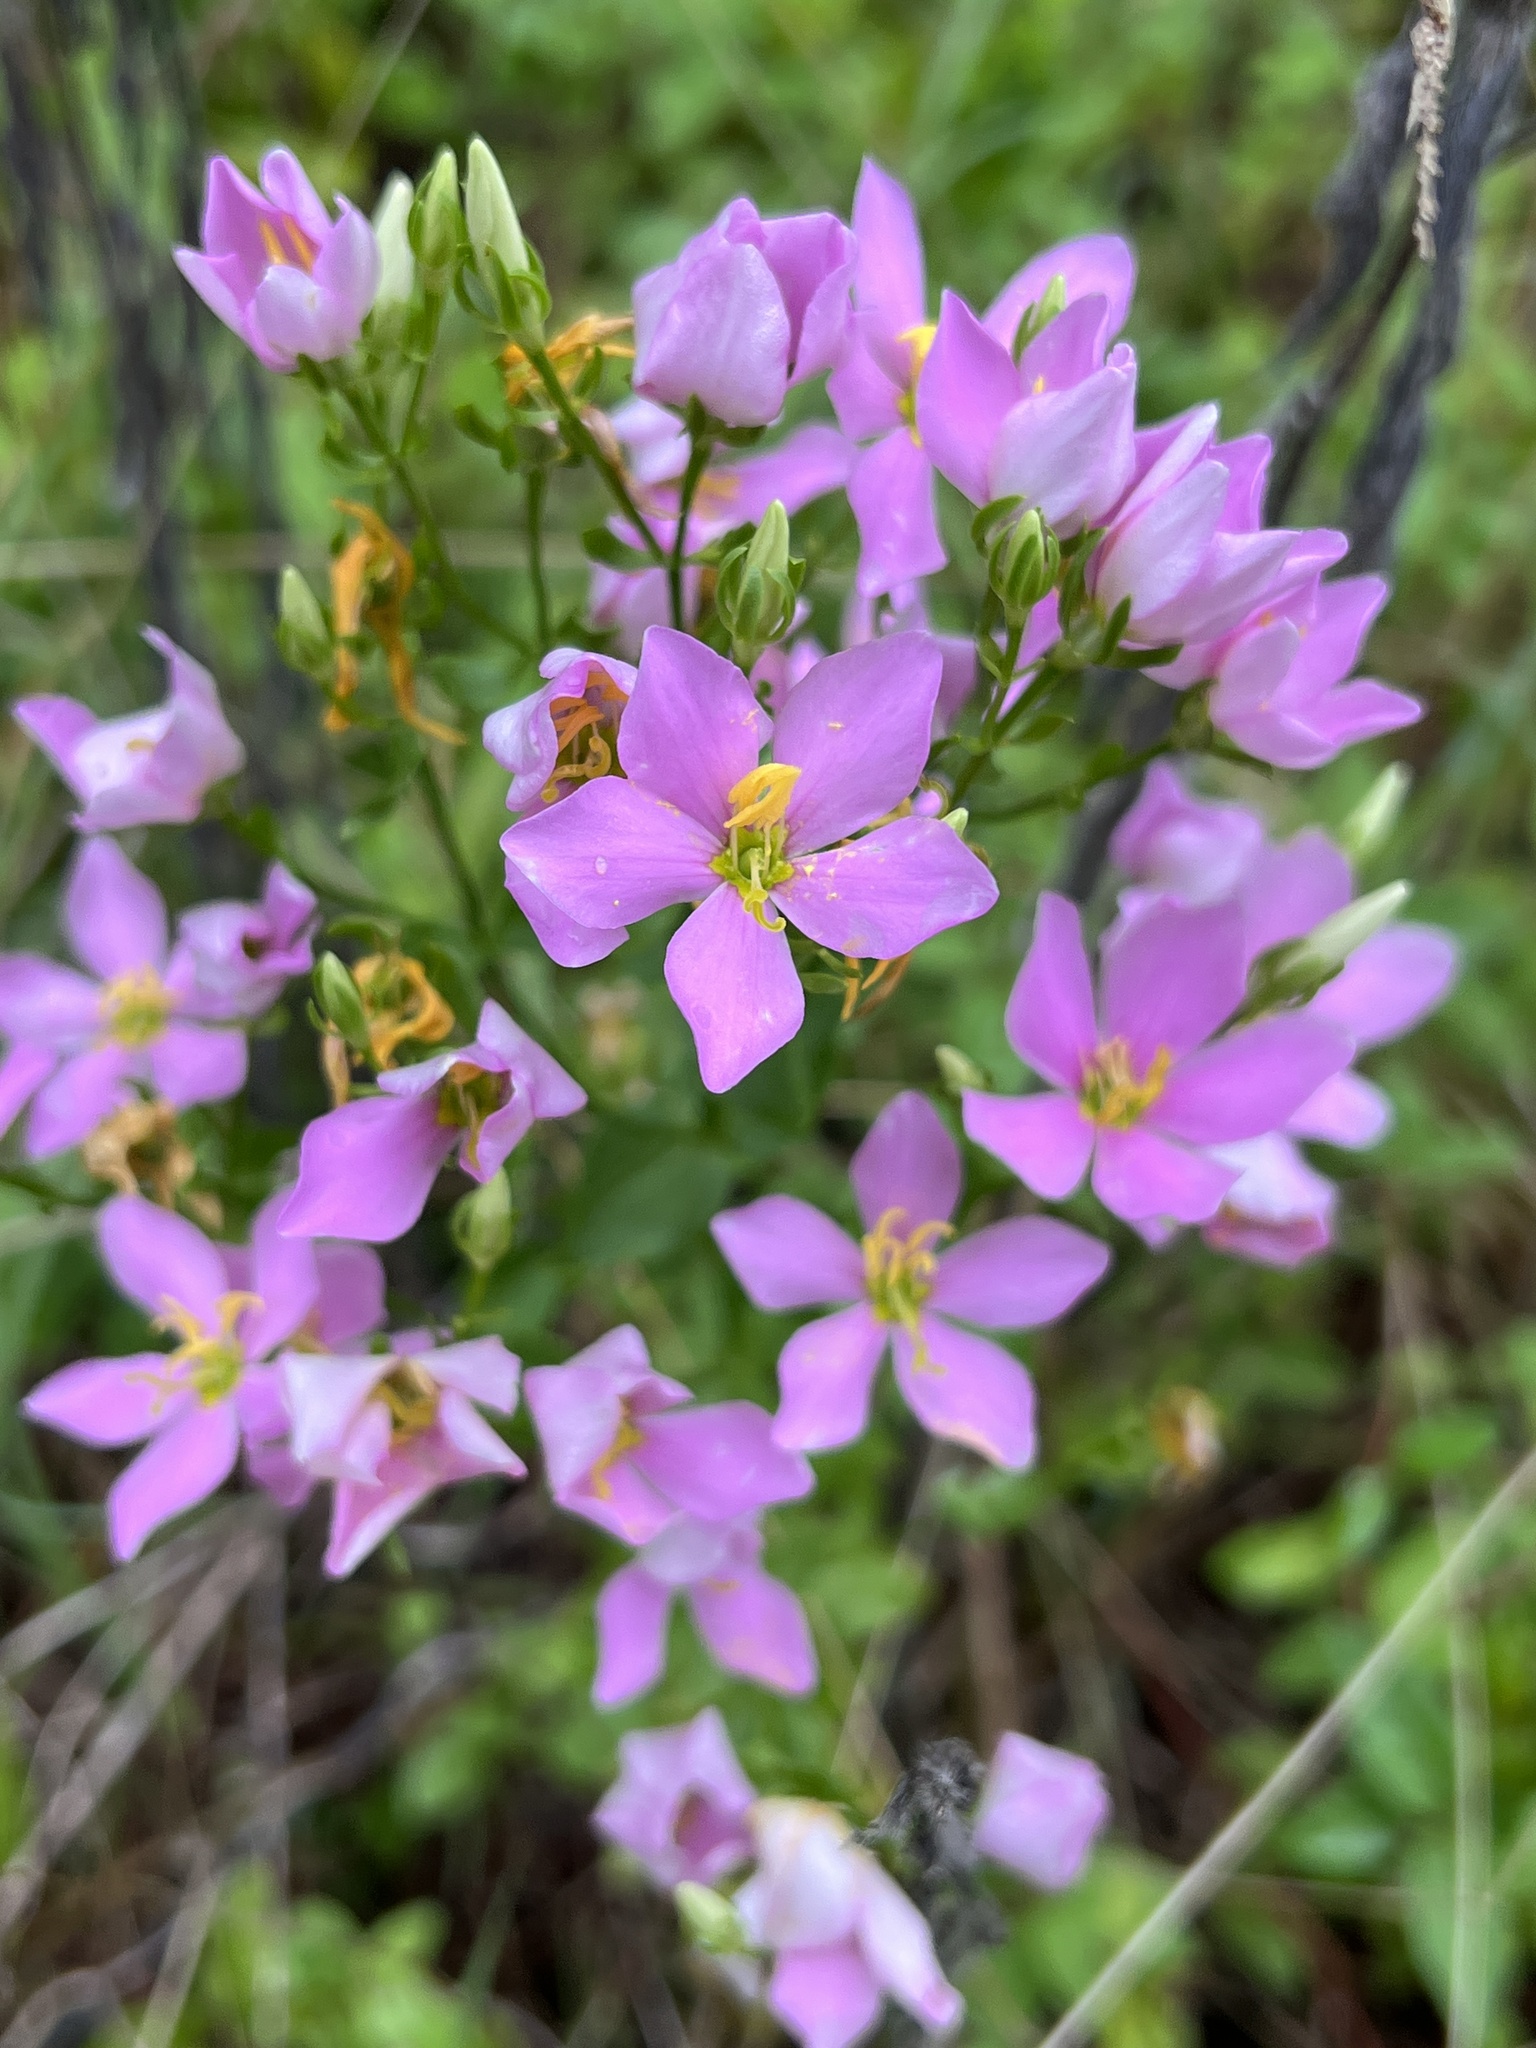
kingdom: Plantae
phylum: Tracheophyta
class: Magnoliopsida
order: Gentianales
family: Gentianaceae
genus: Sabatia
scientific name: Sabatia angularis
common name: Rose-pink
